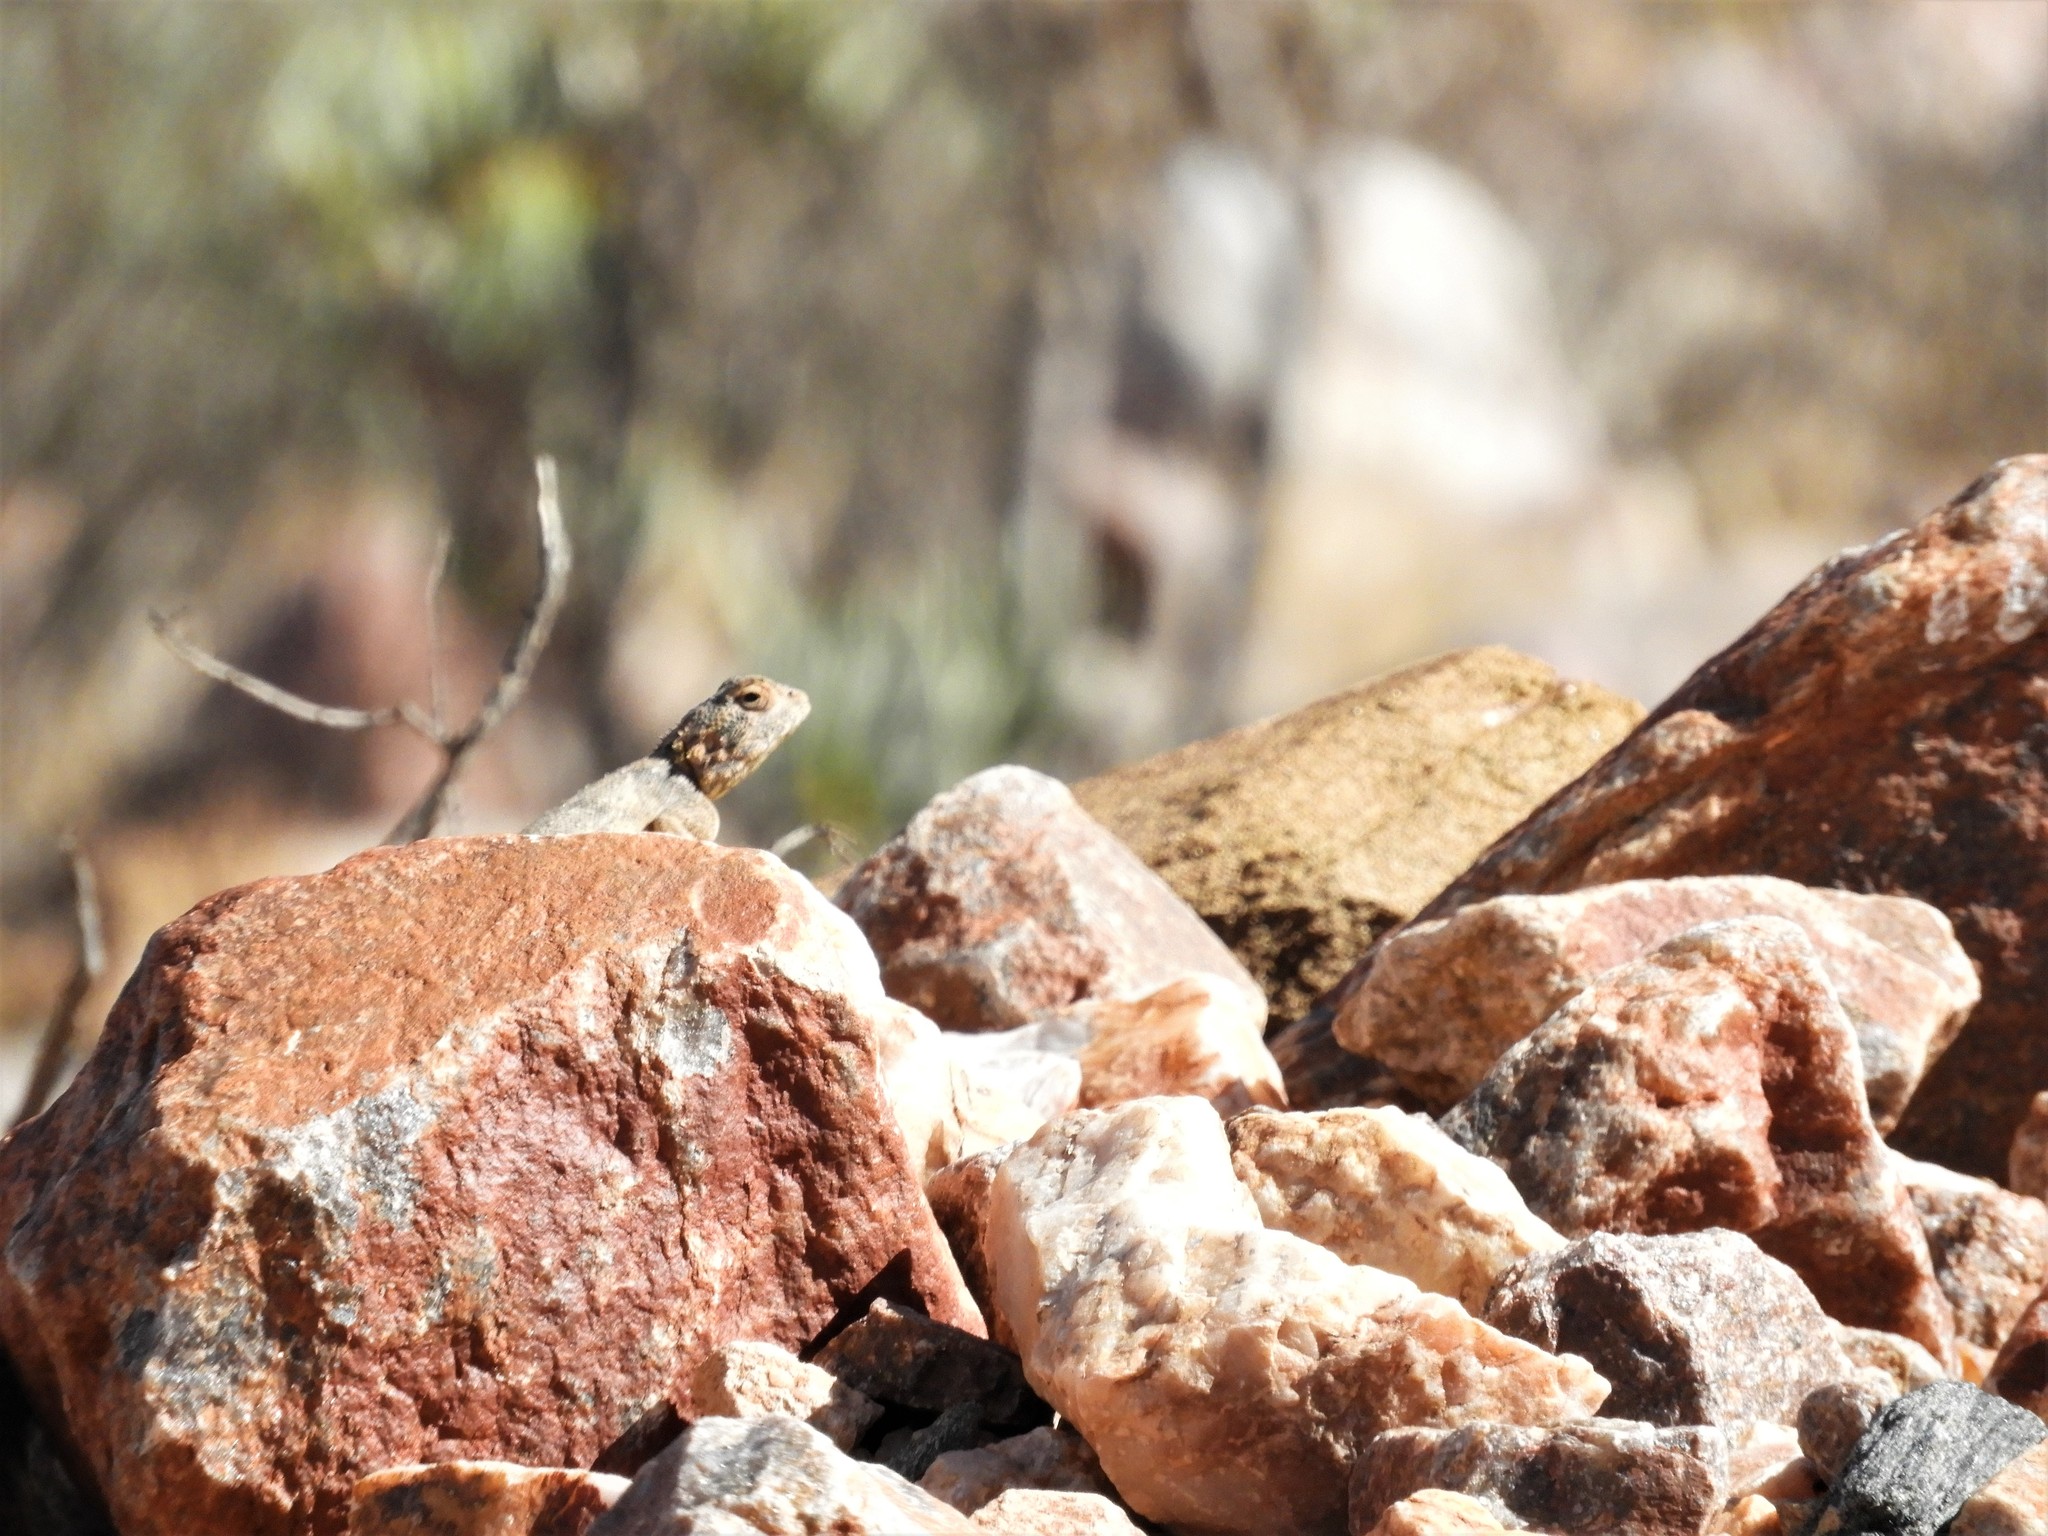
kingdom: Animalia
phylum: Chordata
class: Squamata
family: Agamidae
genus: Agama
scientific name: Agama atra
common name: Southern african rock agama
